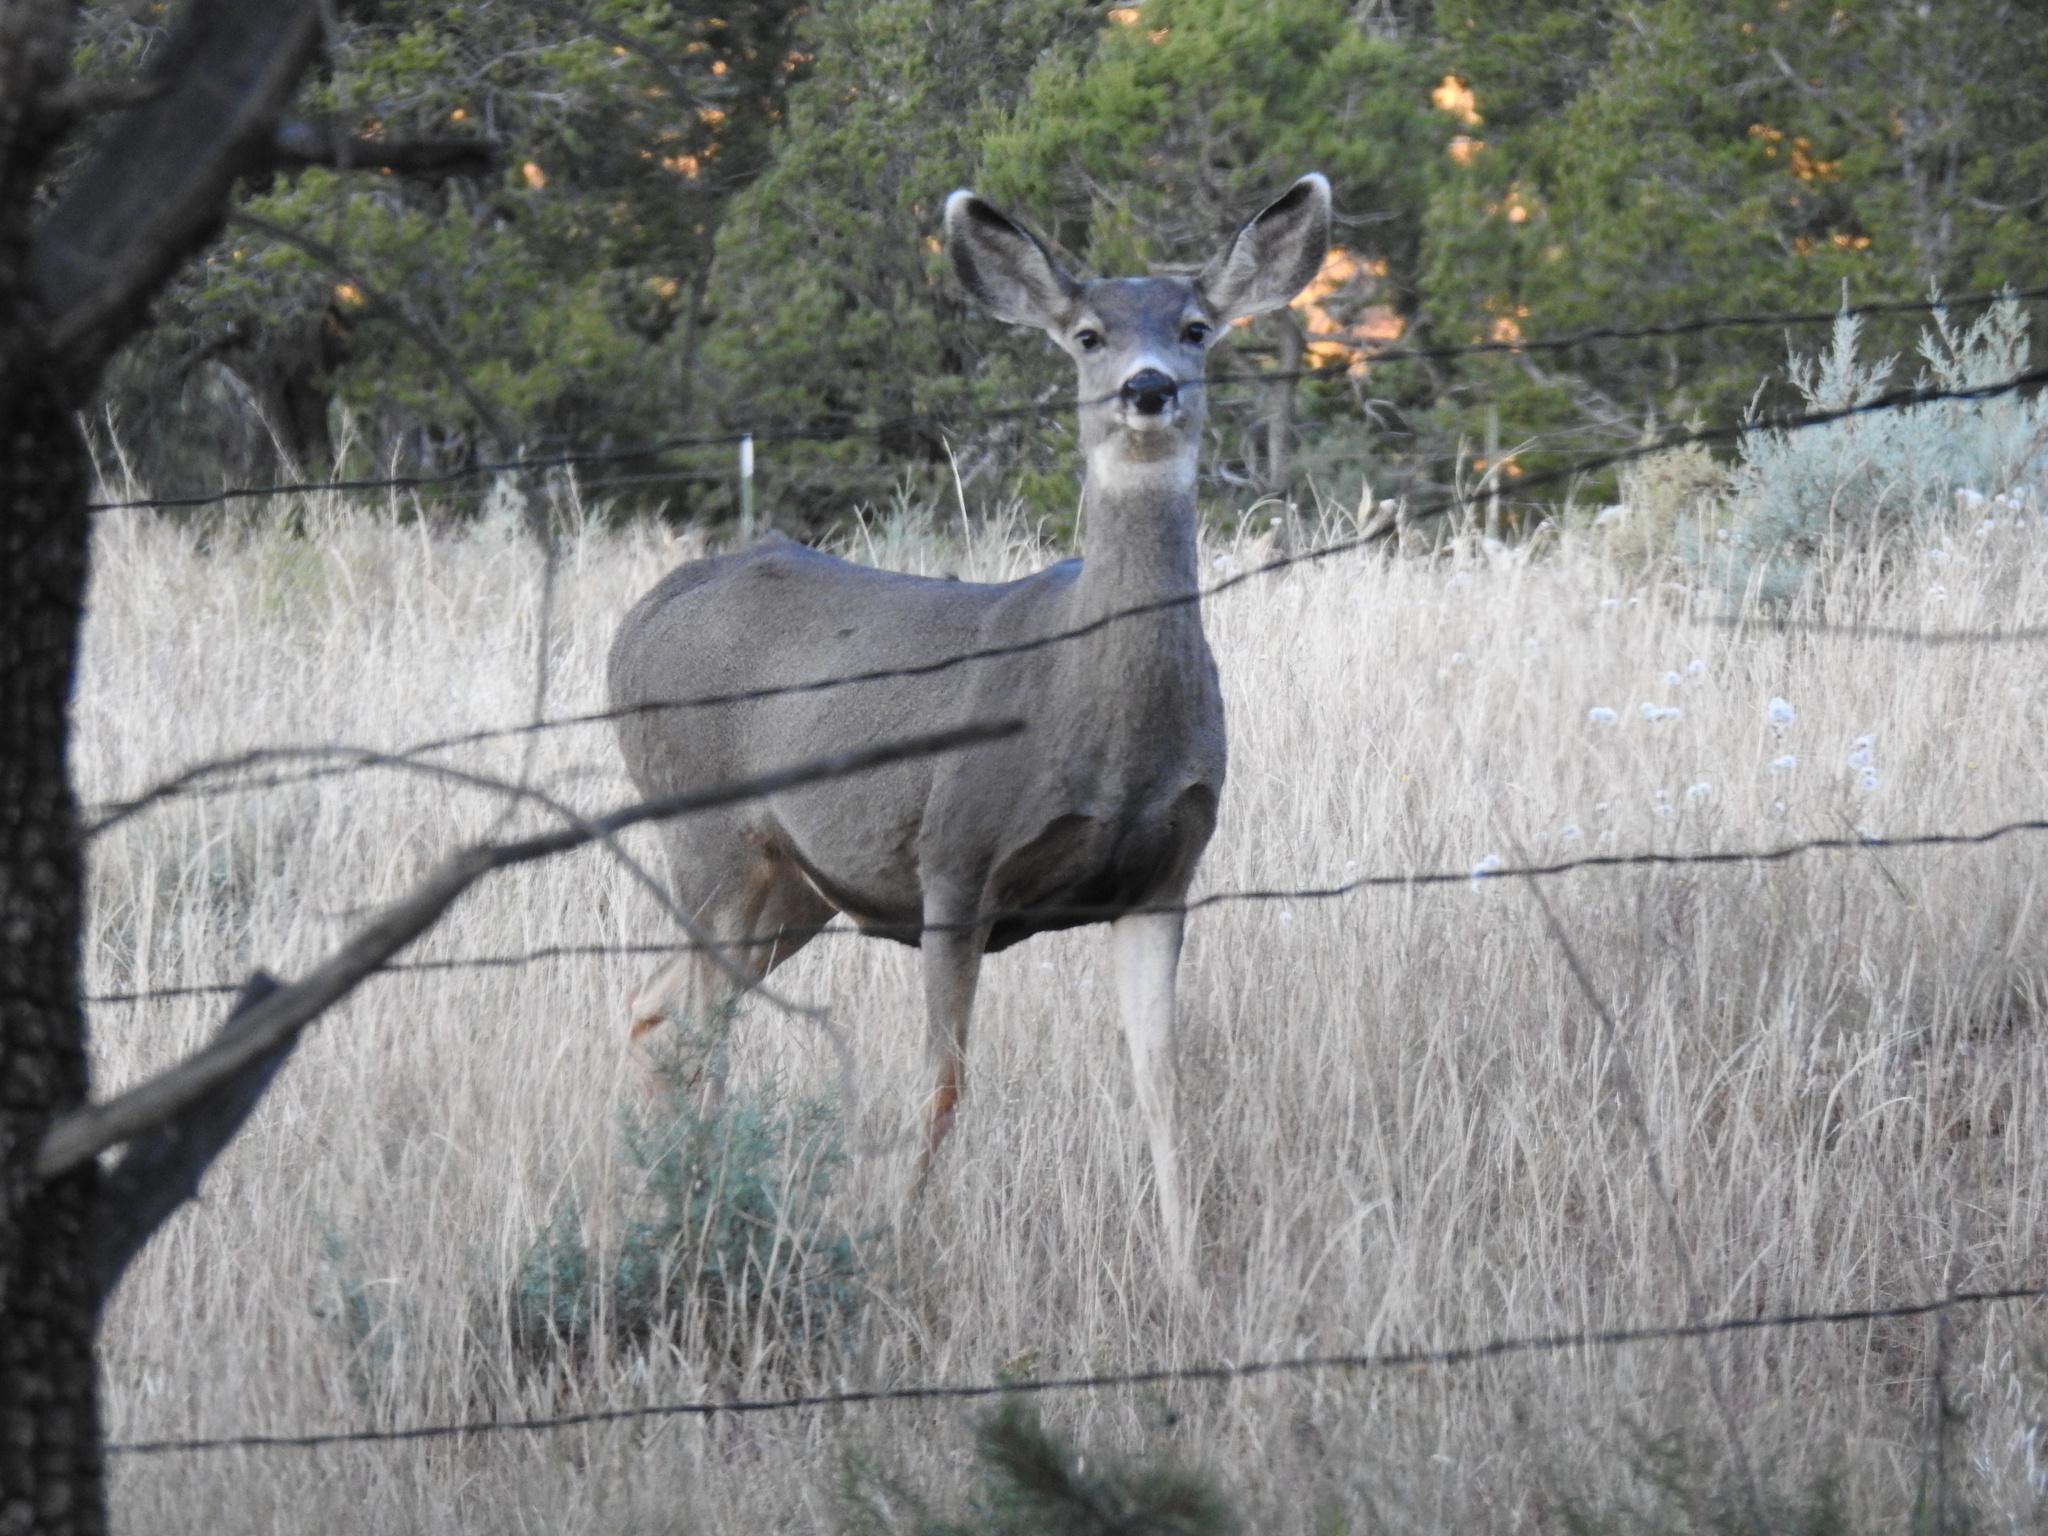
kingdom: Animalia
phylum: Chordata
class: Mammalia
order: Artiodactyla
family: Cervidae
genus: Odocoileus
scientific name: Odocoileus hemionus
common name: Mule deer
